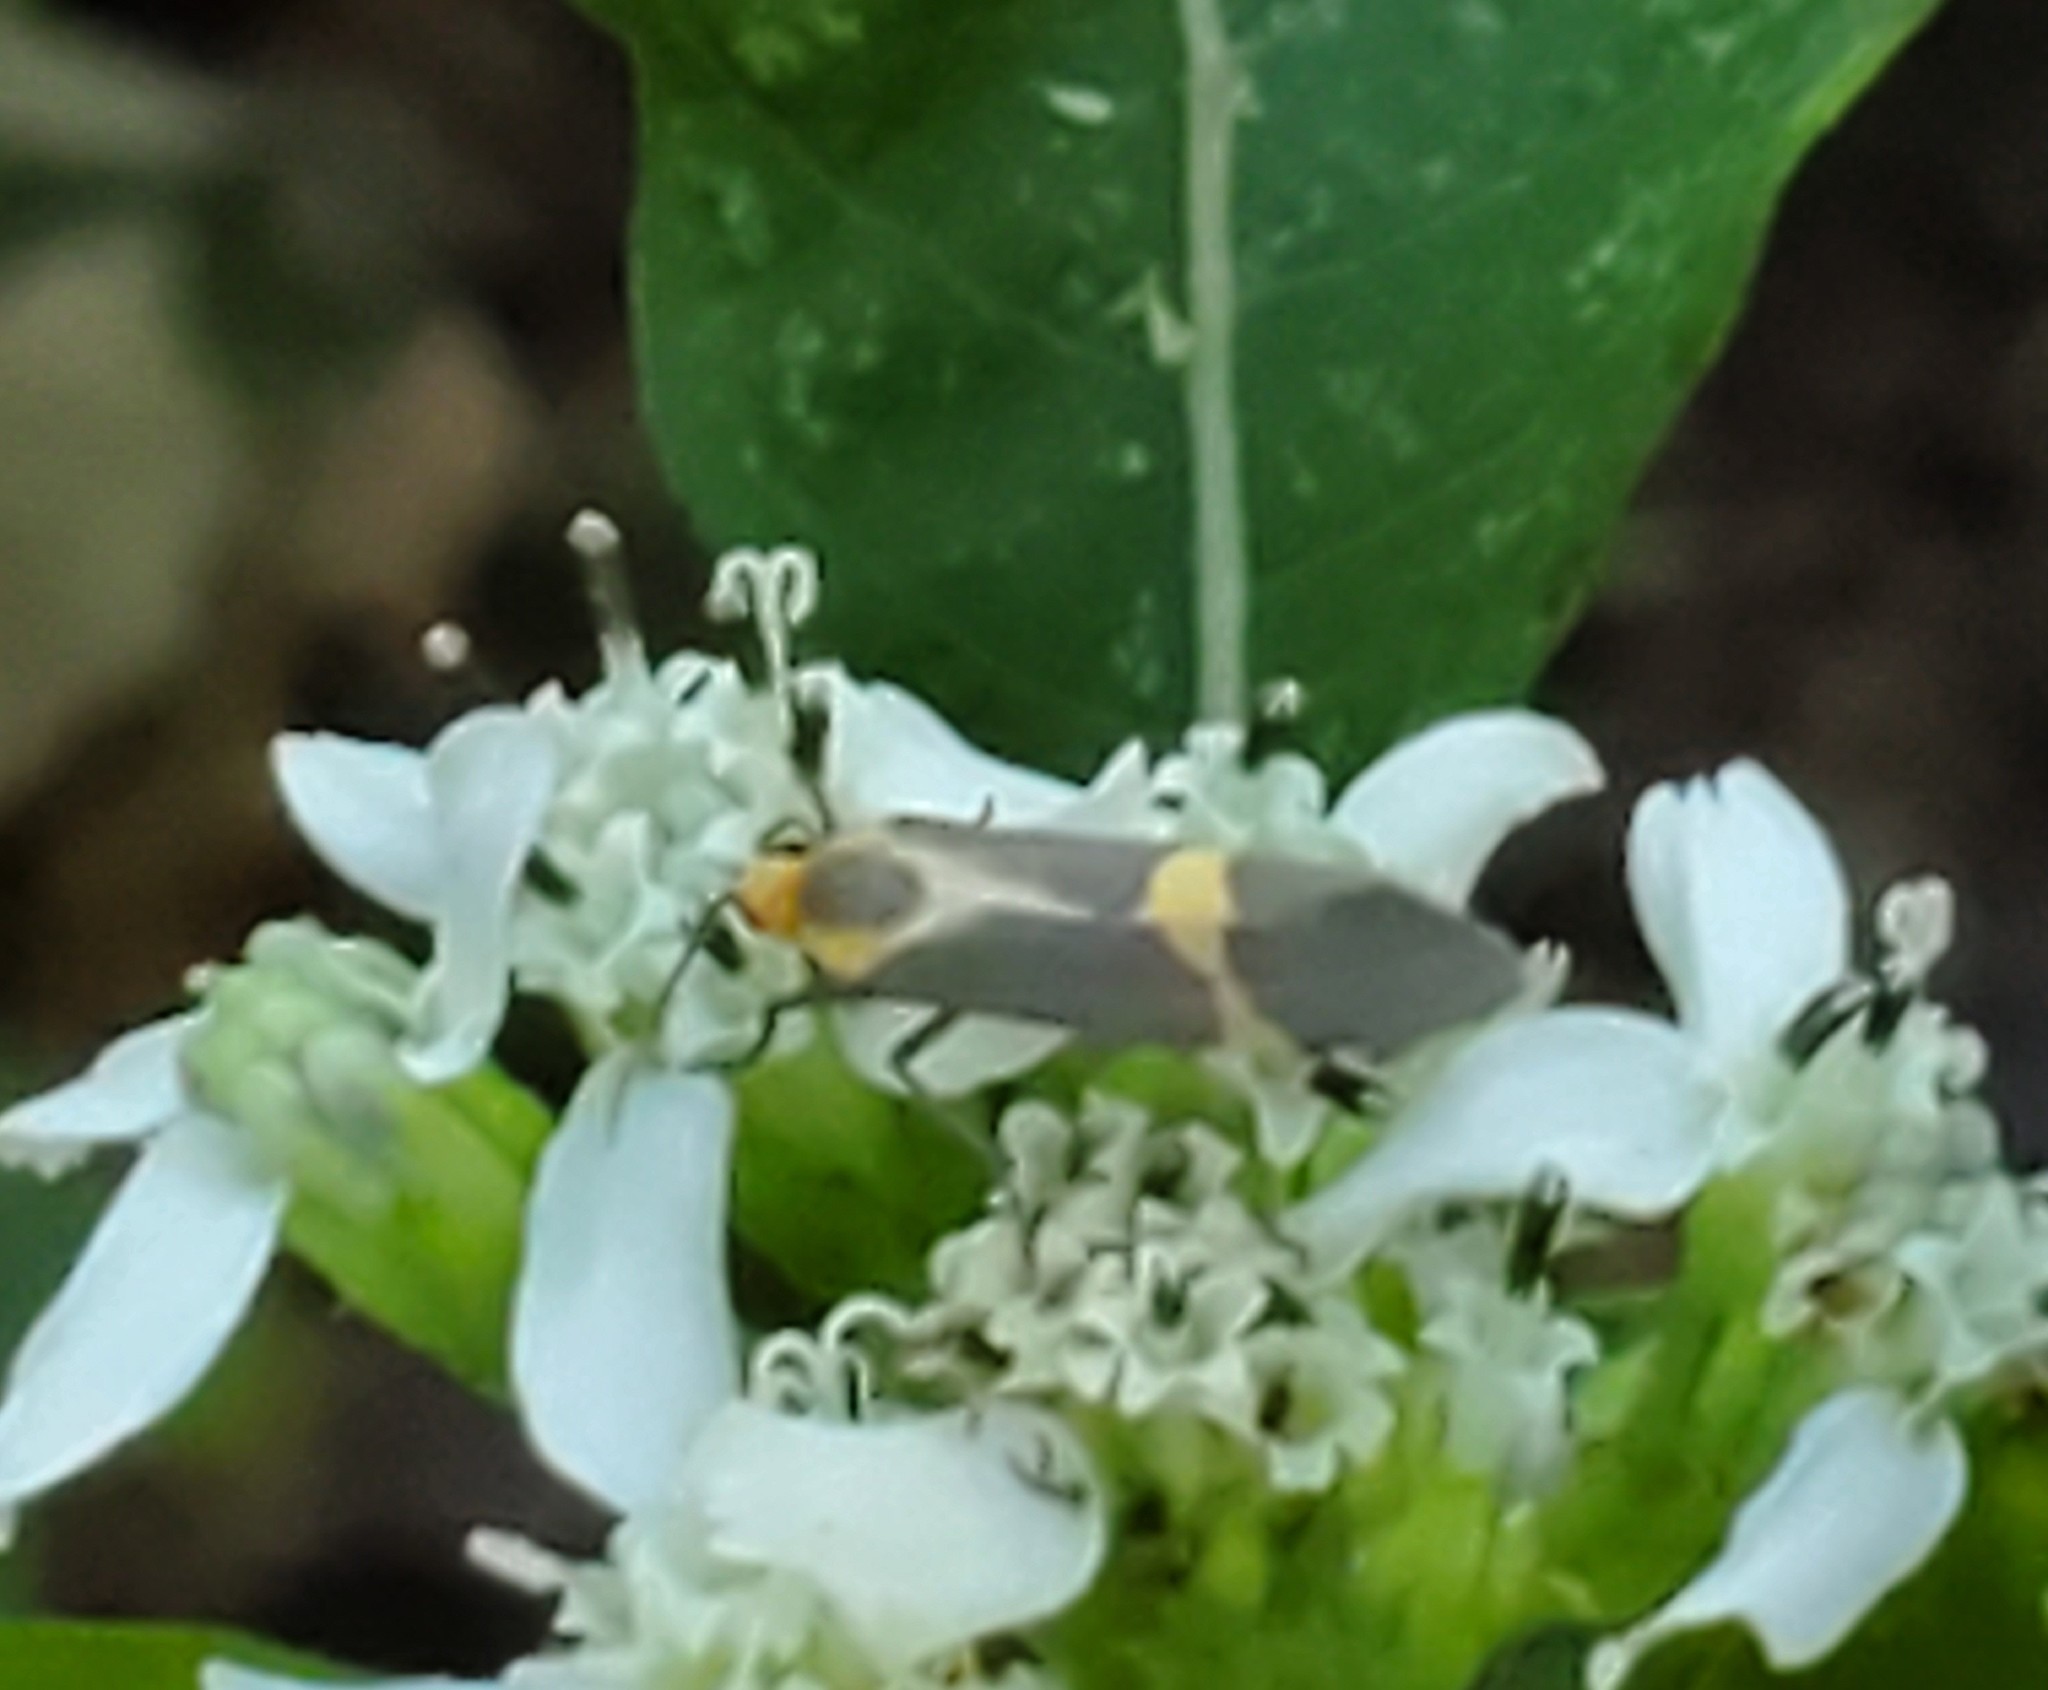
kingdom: Animalia
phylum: Arthropoda
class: Insecta
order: Lepidoptera
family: Erebidae
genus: Cisthene
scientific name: Cisthene tenuifascia
